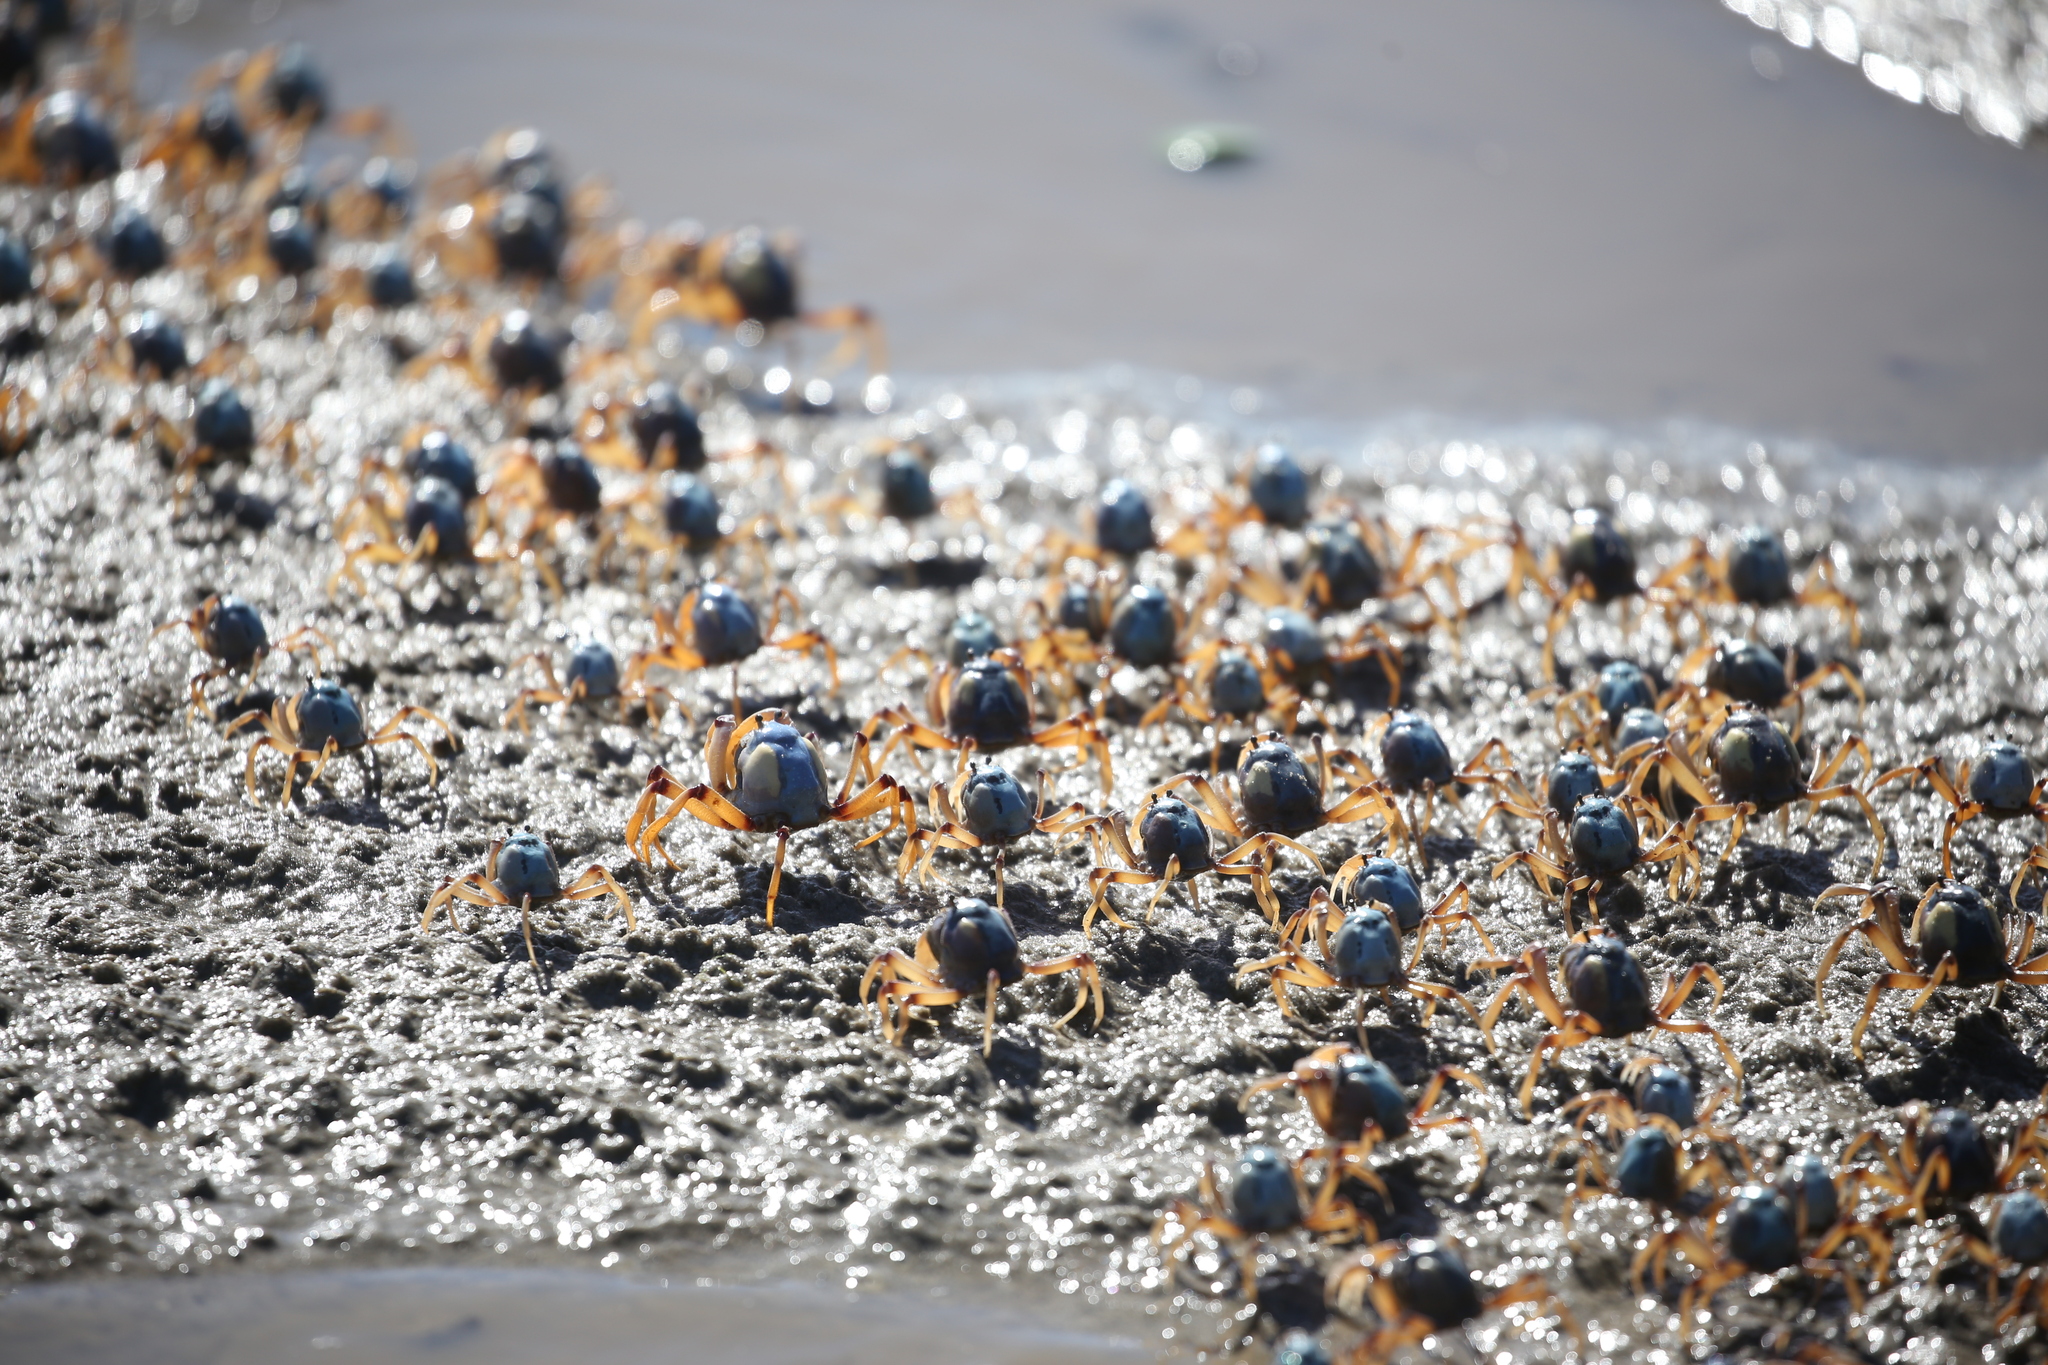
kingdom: Animalia
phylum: Arthropoda
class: Malacostraca
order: Decapoda
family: Mictyridae
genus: Mictyris
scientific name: Mictyris longicarpus
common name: Light-blue soldier crab
